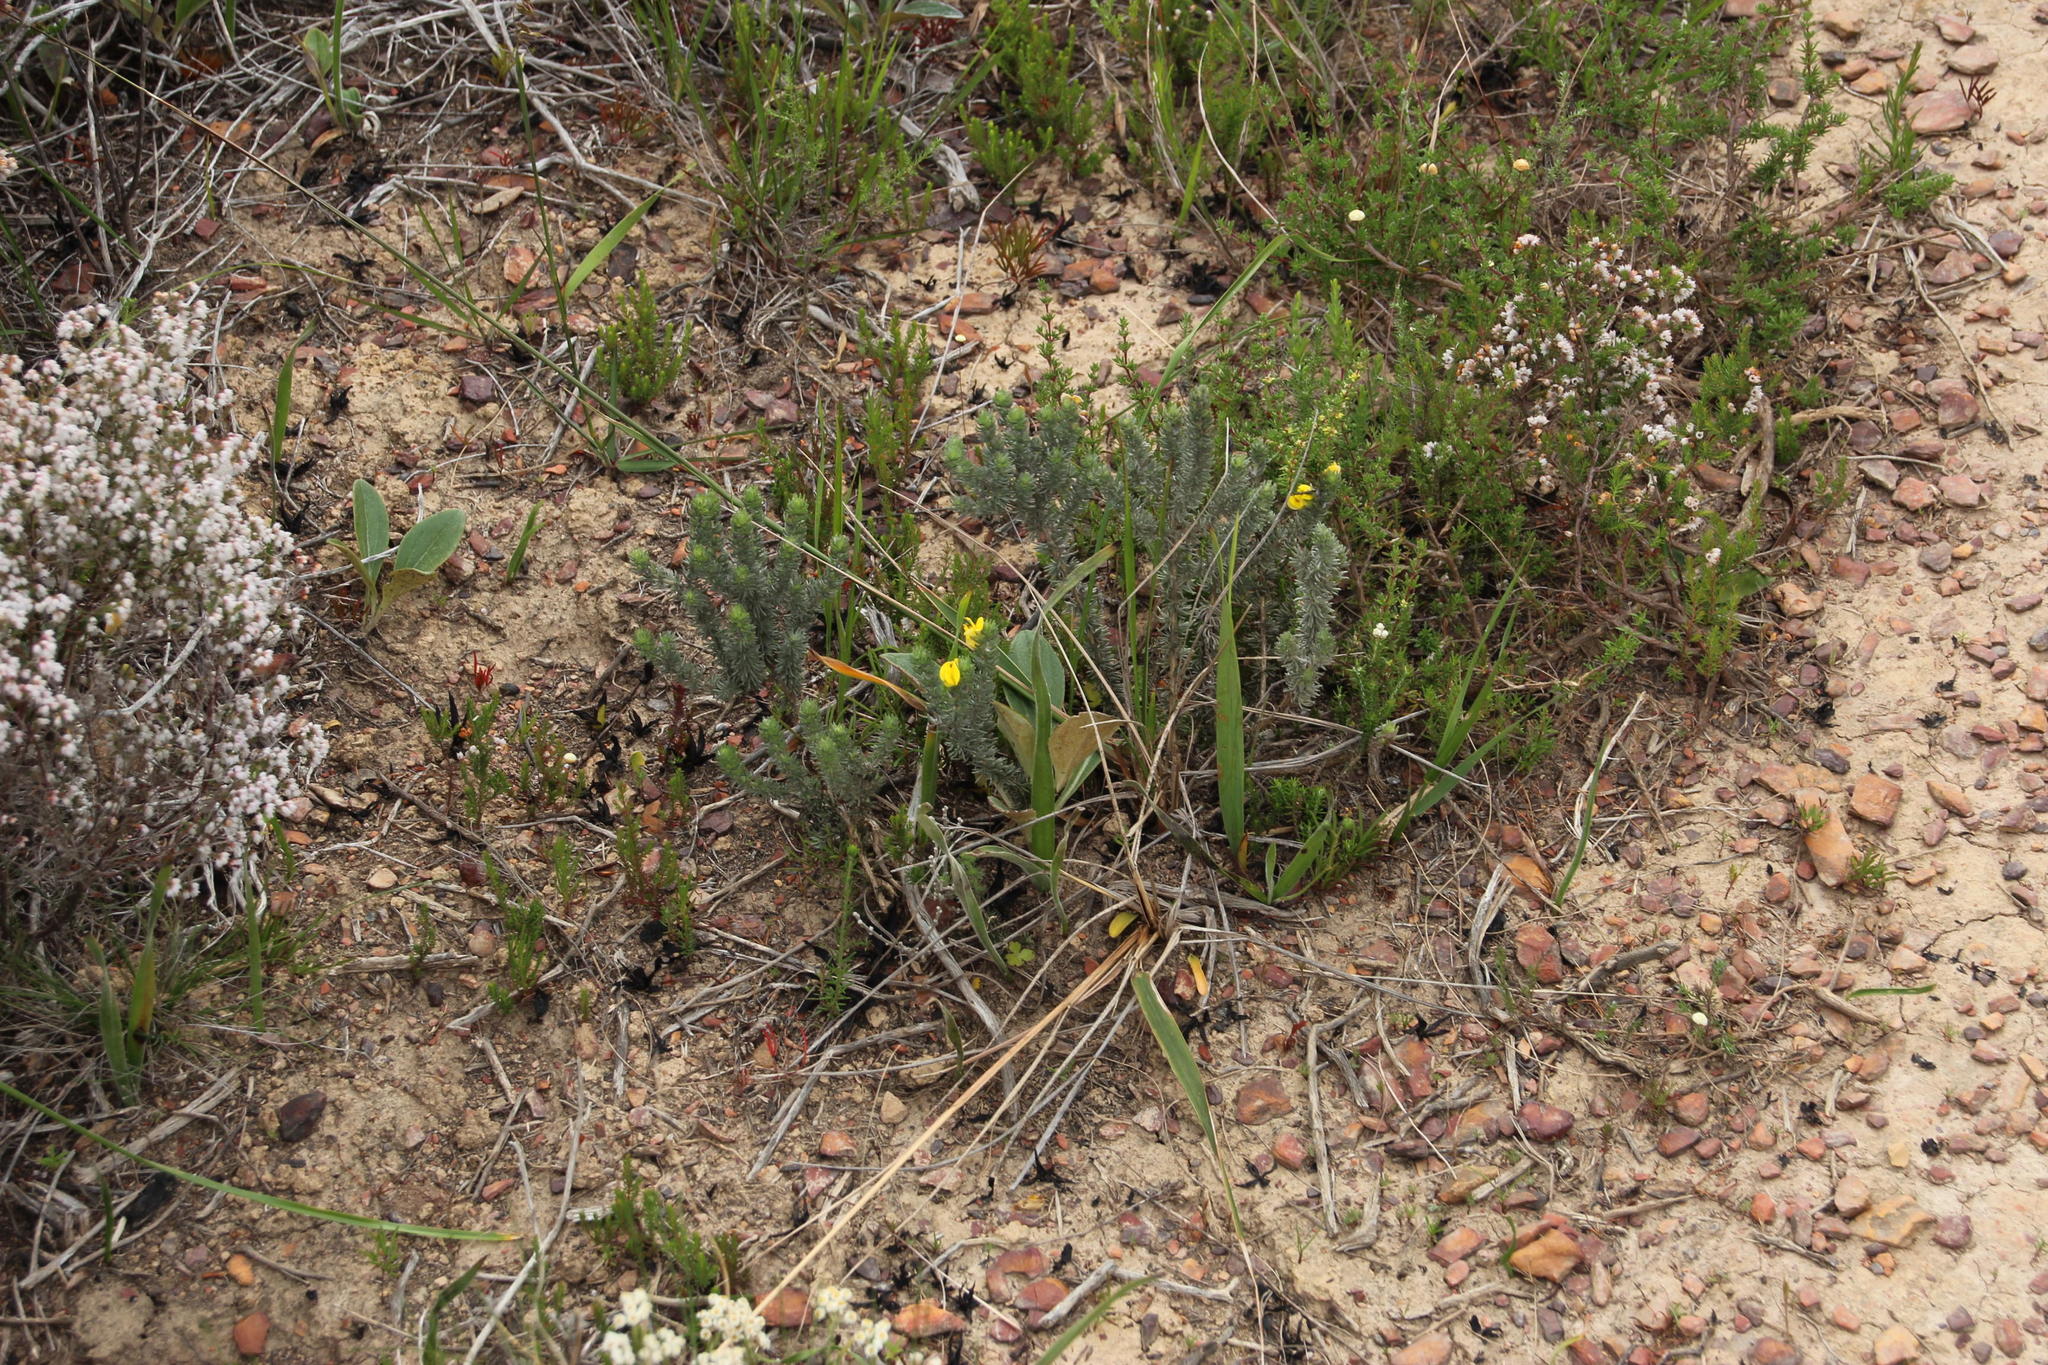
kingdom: Plantae
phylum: Tracheophyta
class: Magnoliopsida
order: Fabales
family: Fabaceae
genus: Aspalathus
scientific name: Aspalathus laricifolia
